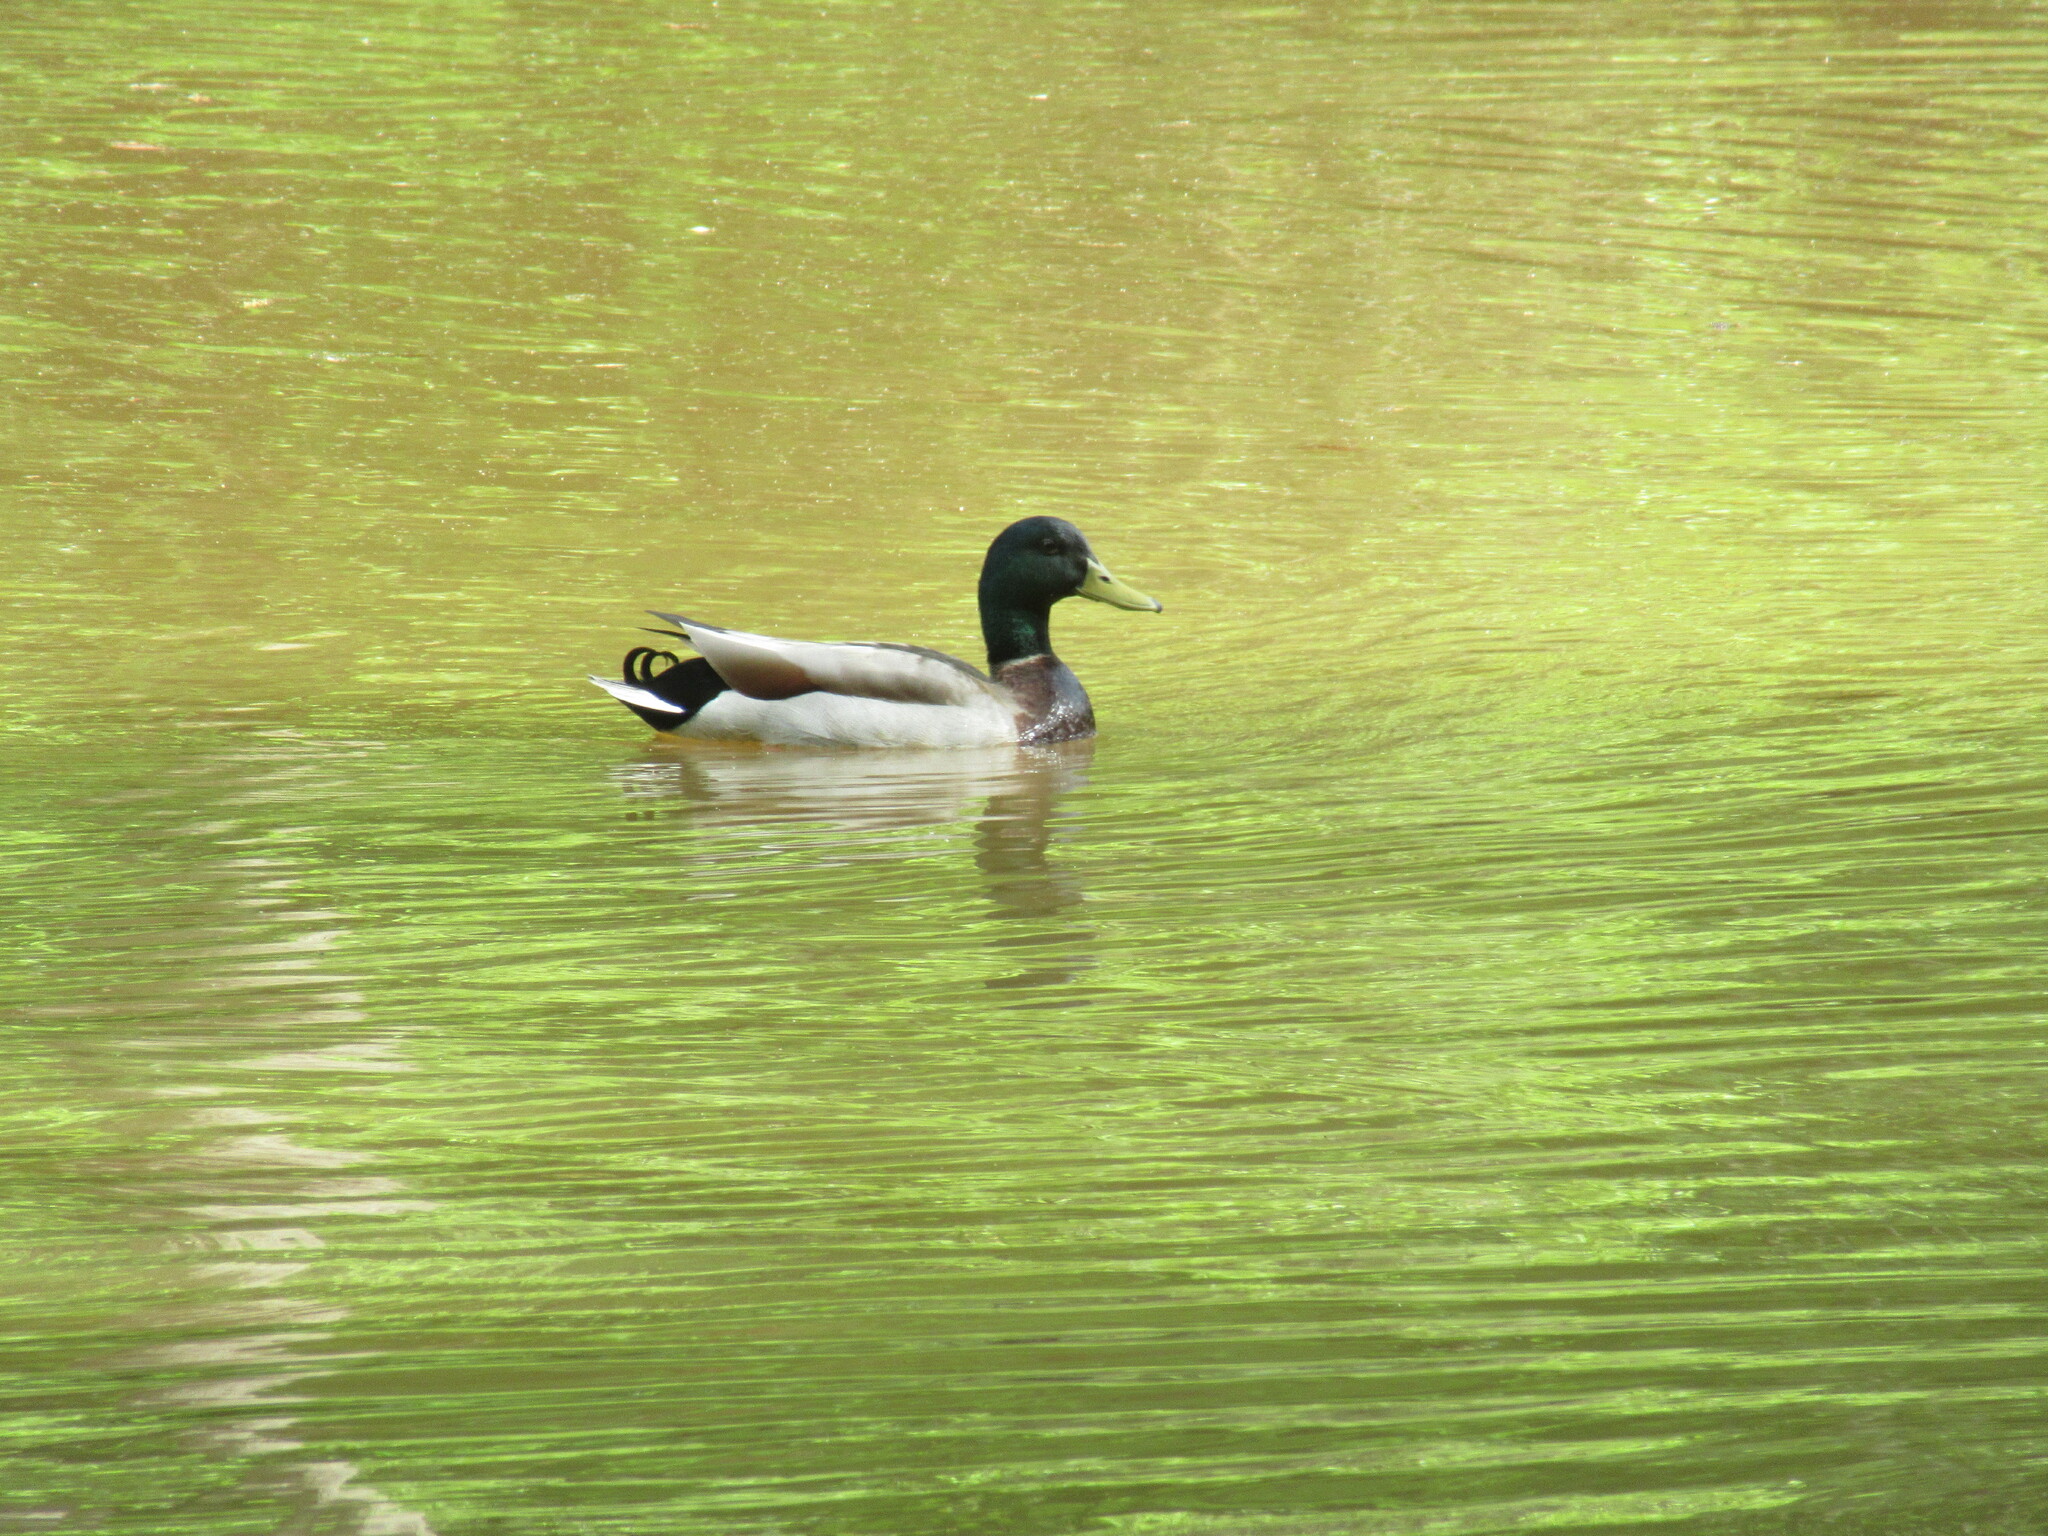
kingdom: Animalia
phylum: Chordata
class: Aves
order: Anseriformes
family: Anatidae
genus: Anas
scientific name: Anas platyrhynchos
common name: Mallard
